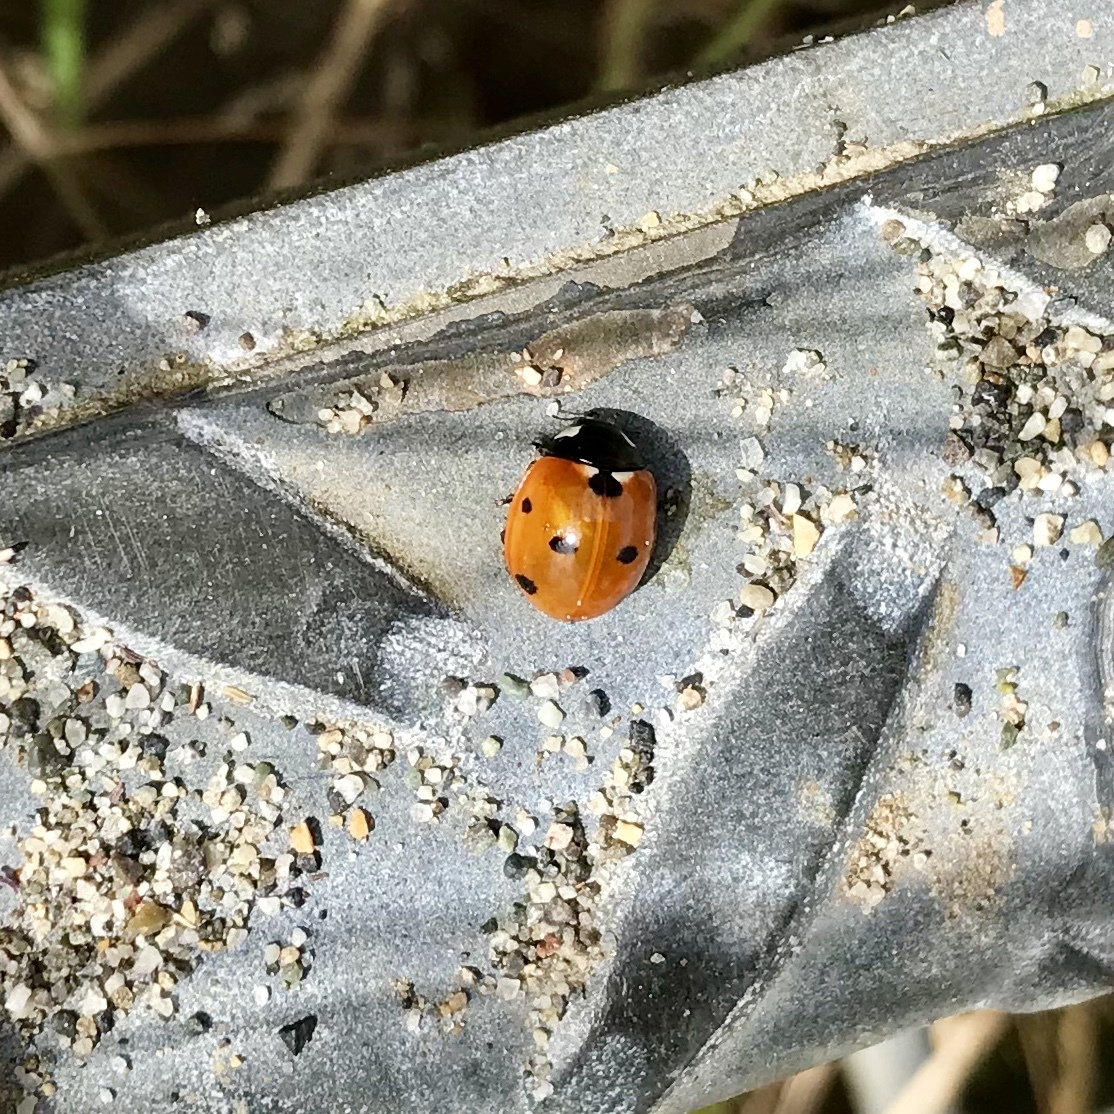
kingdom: Animalia
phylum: Arthropoda
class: Insecta
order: Coleoptera
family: Coccinellidae
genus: Coccinella
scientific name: Coccinella septempunctata
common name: Sevenspotted lady beetle
